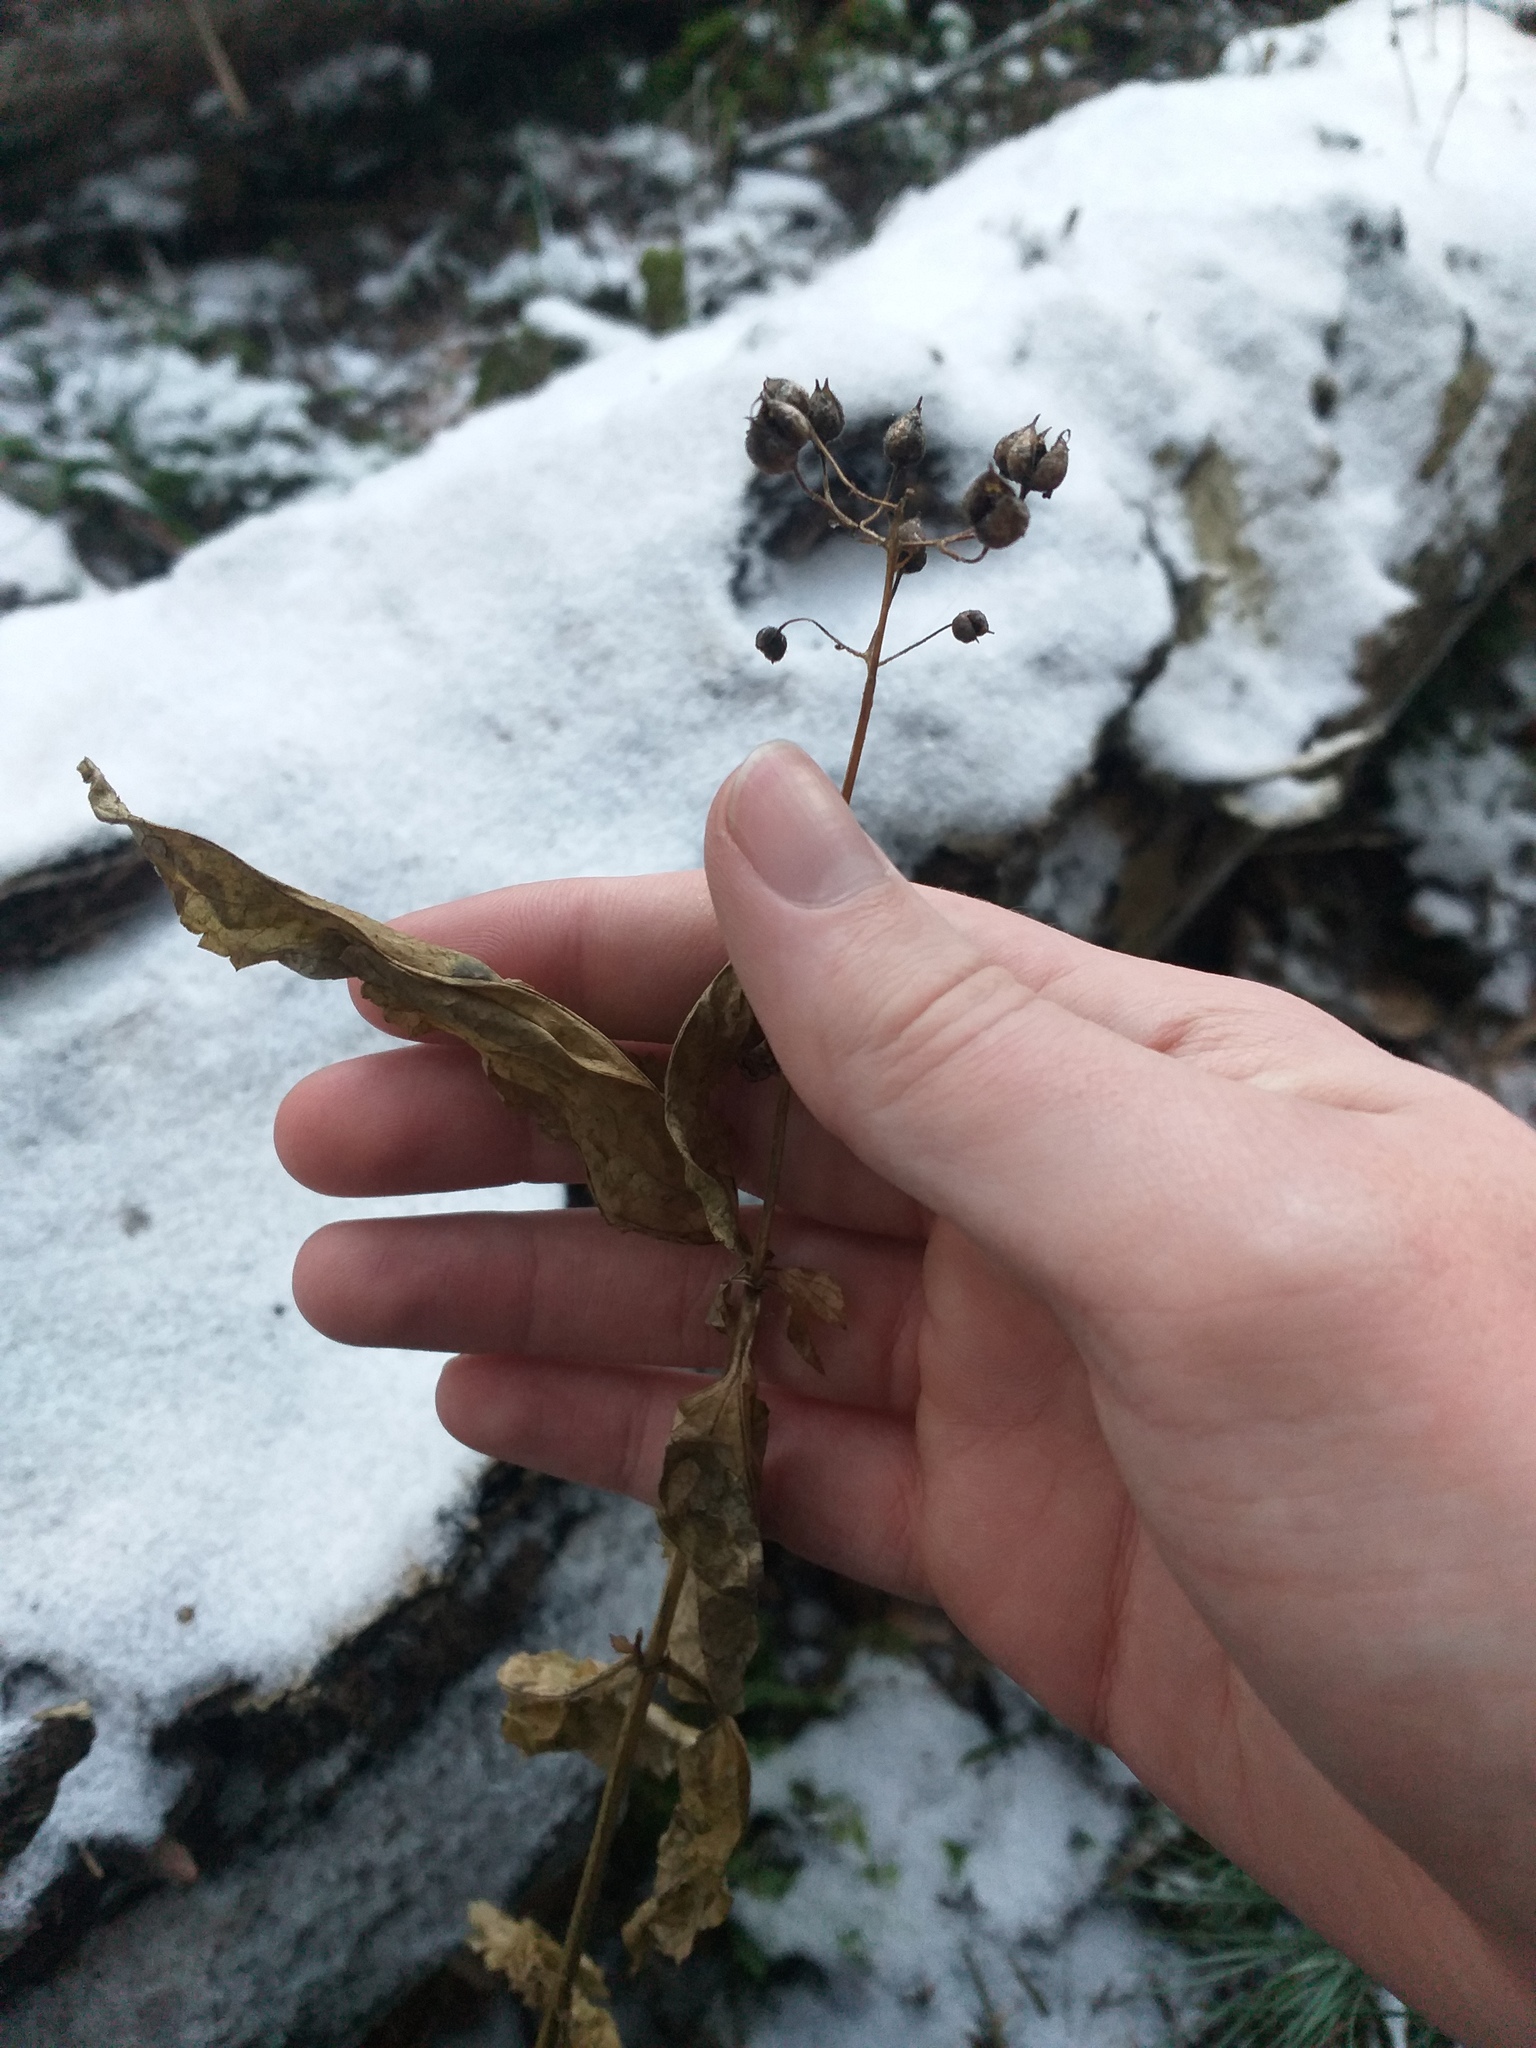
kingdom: Plantae
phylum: Tracheophyta
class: Magnoliopsida
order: Lamiales
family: Scrophulariaceae
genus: Scrophularia
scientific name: Scrophularia nodosa
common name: Common figwort
